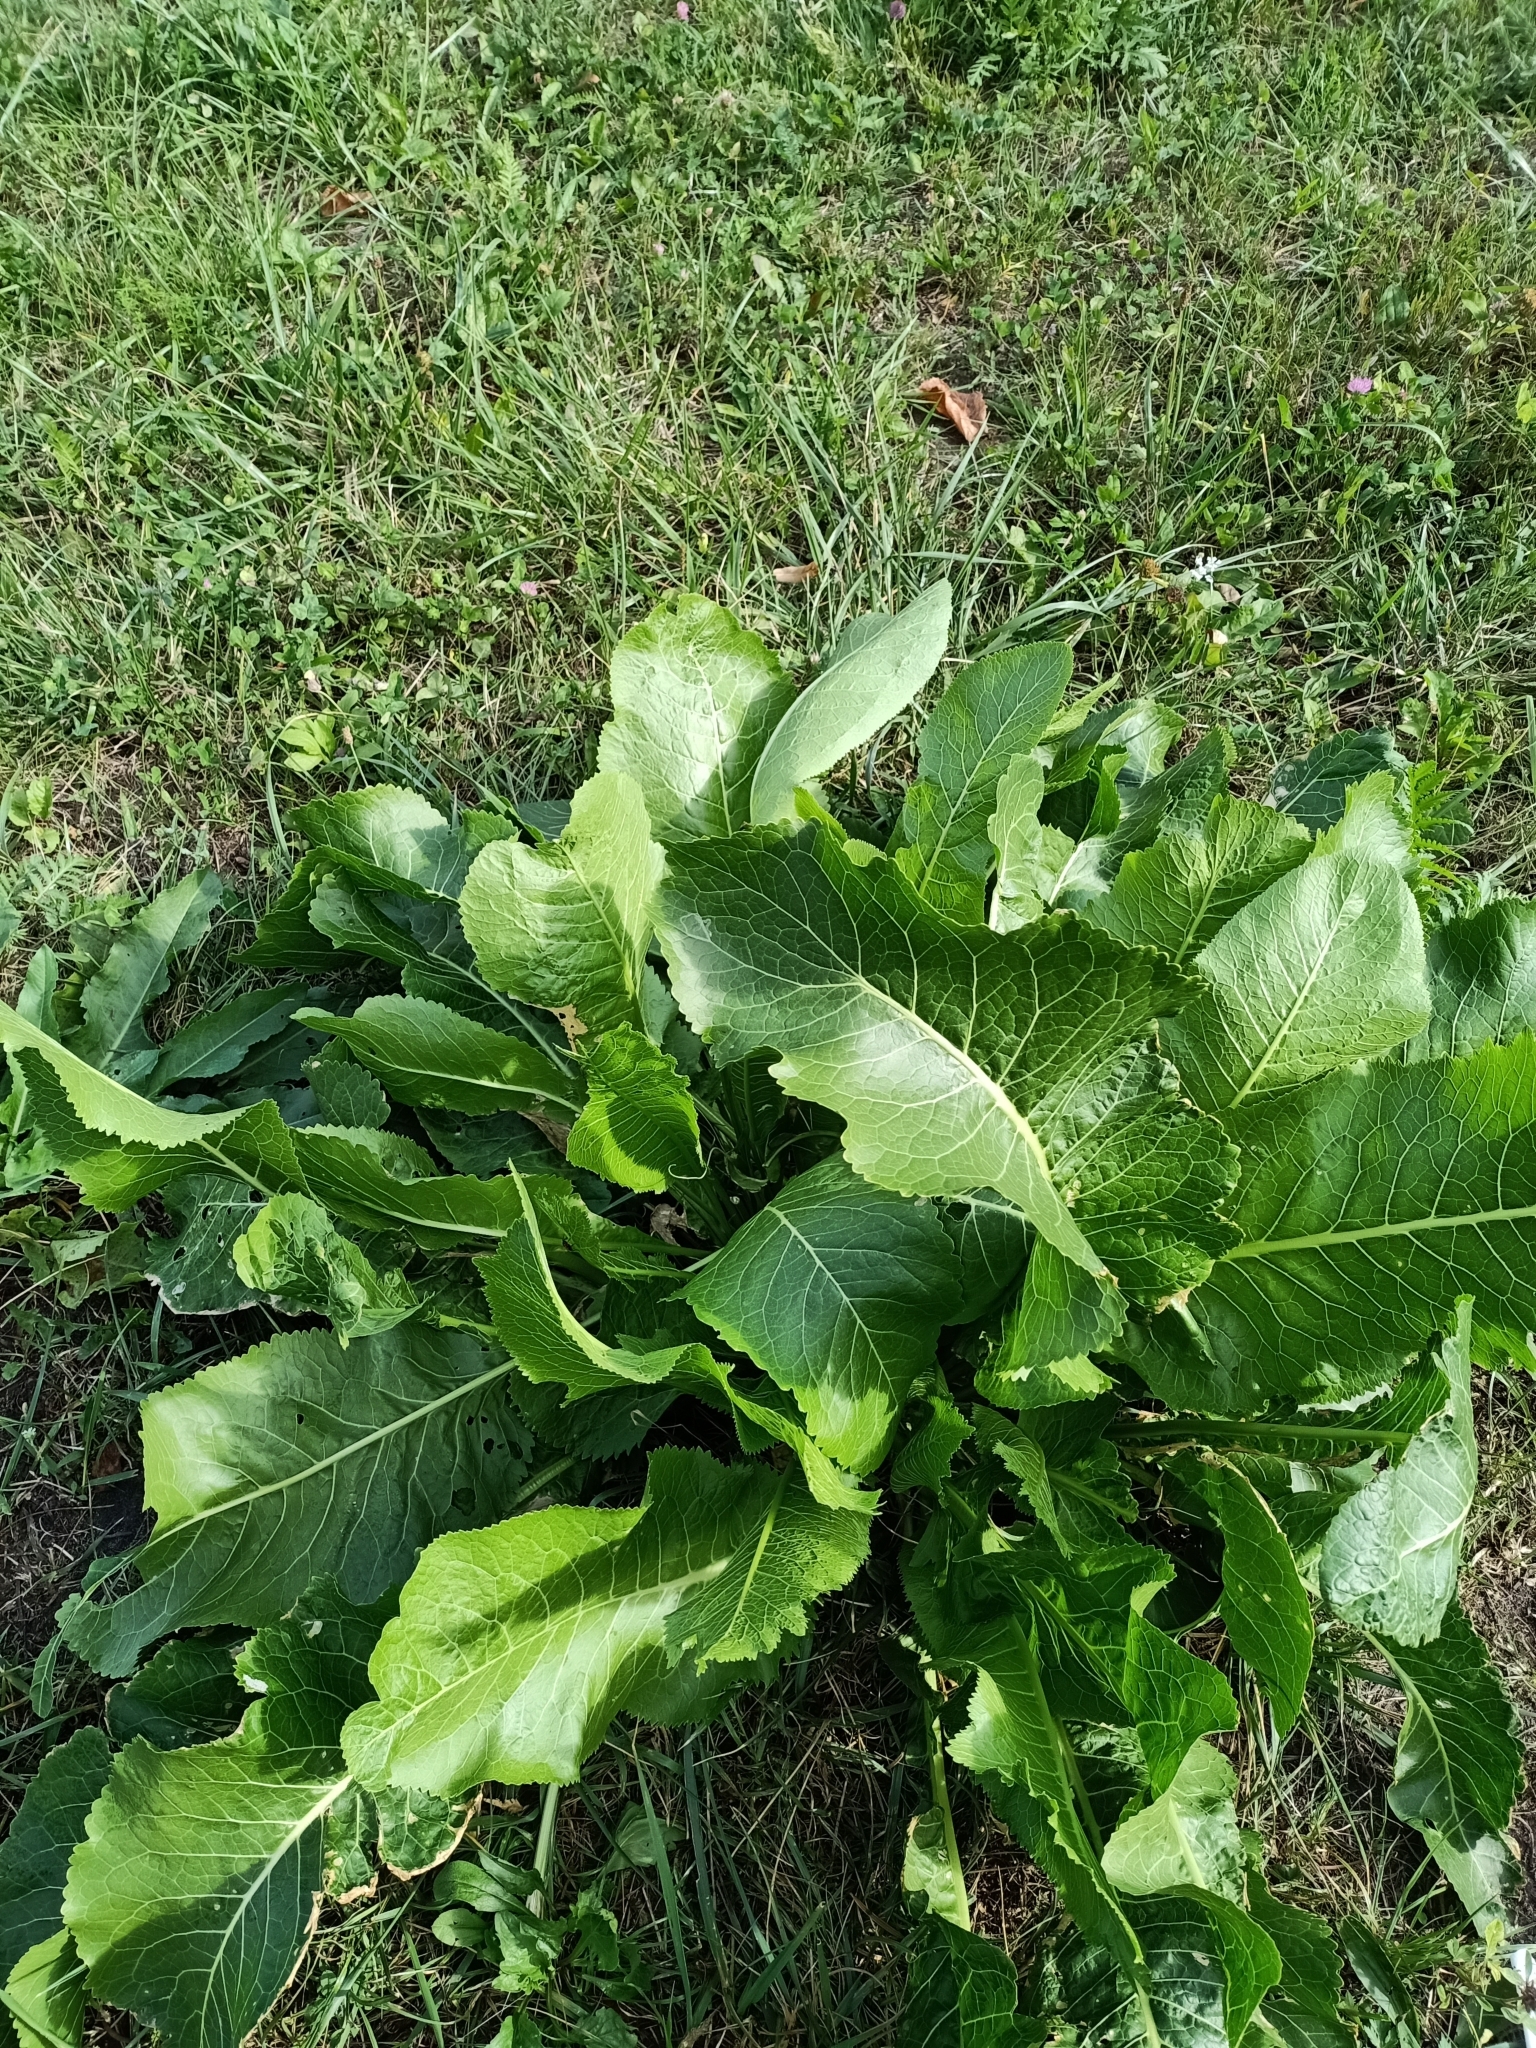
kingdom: Plantae
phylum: Tracheophyta
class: Magnoliopsida
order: Brassicales
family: Brassicaceae
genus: Armoracia
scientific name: Armoracia rusticana
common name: Horseradish
